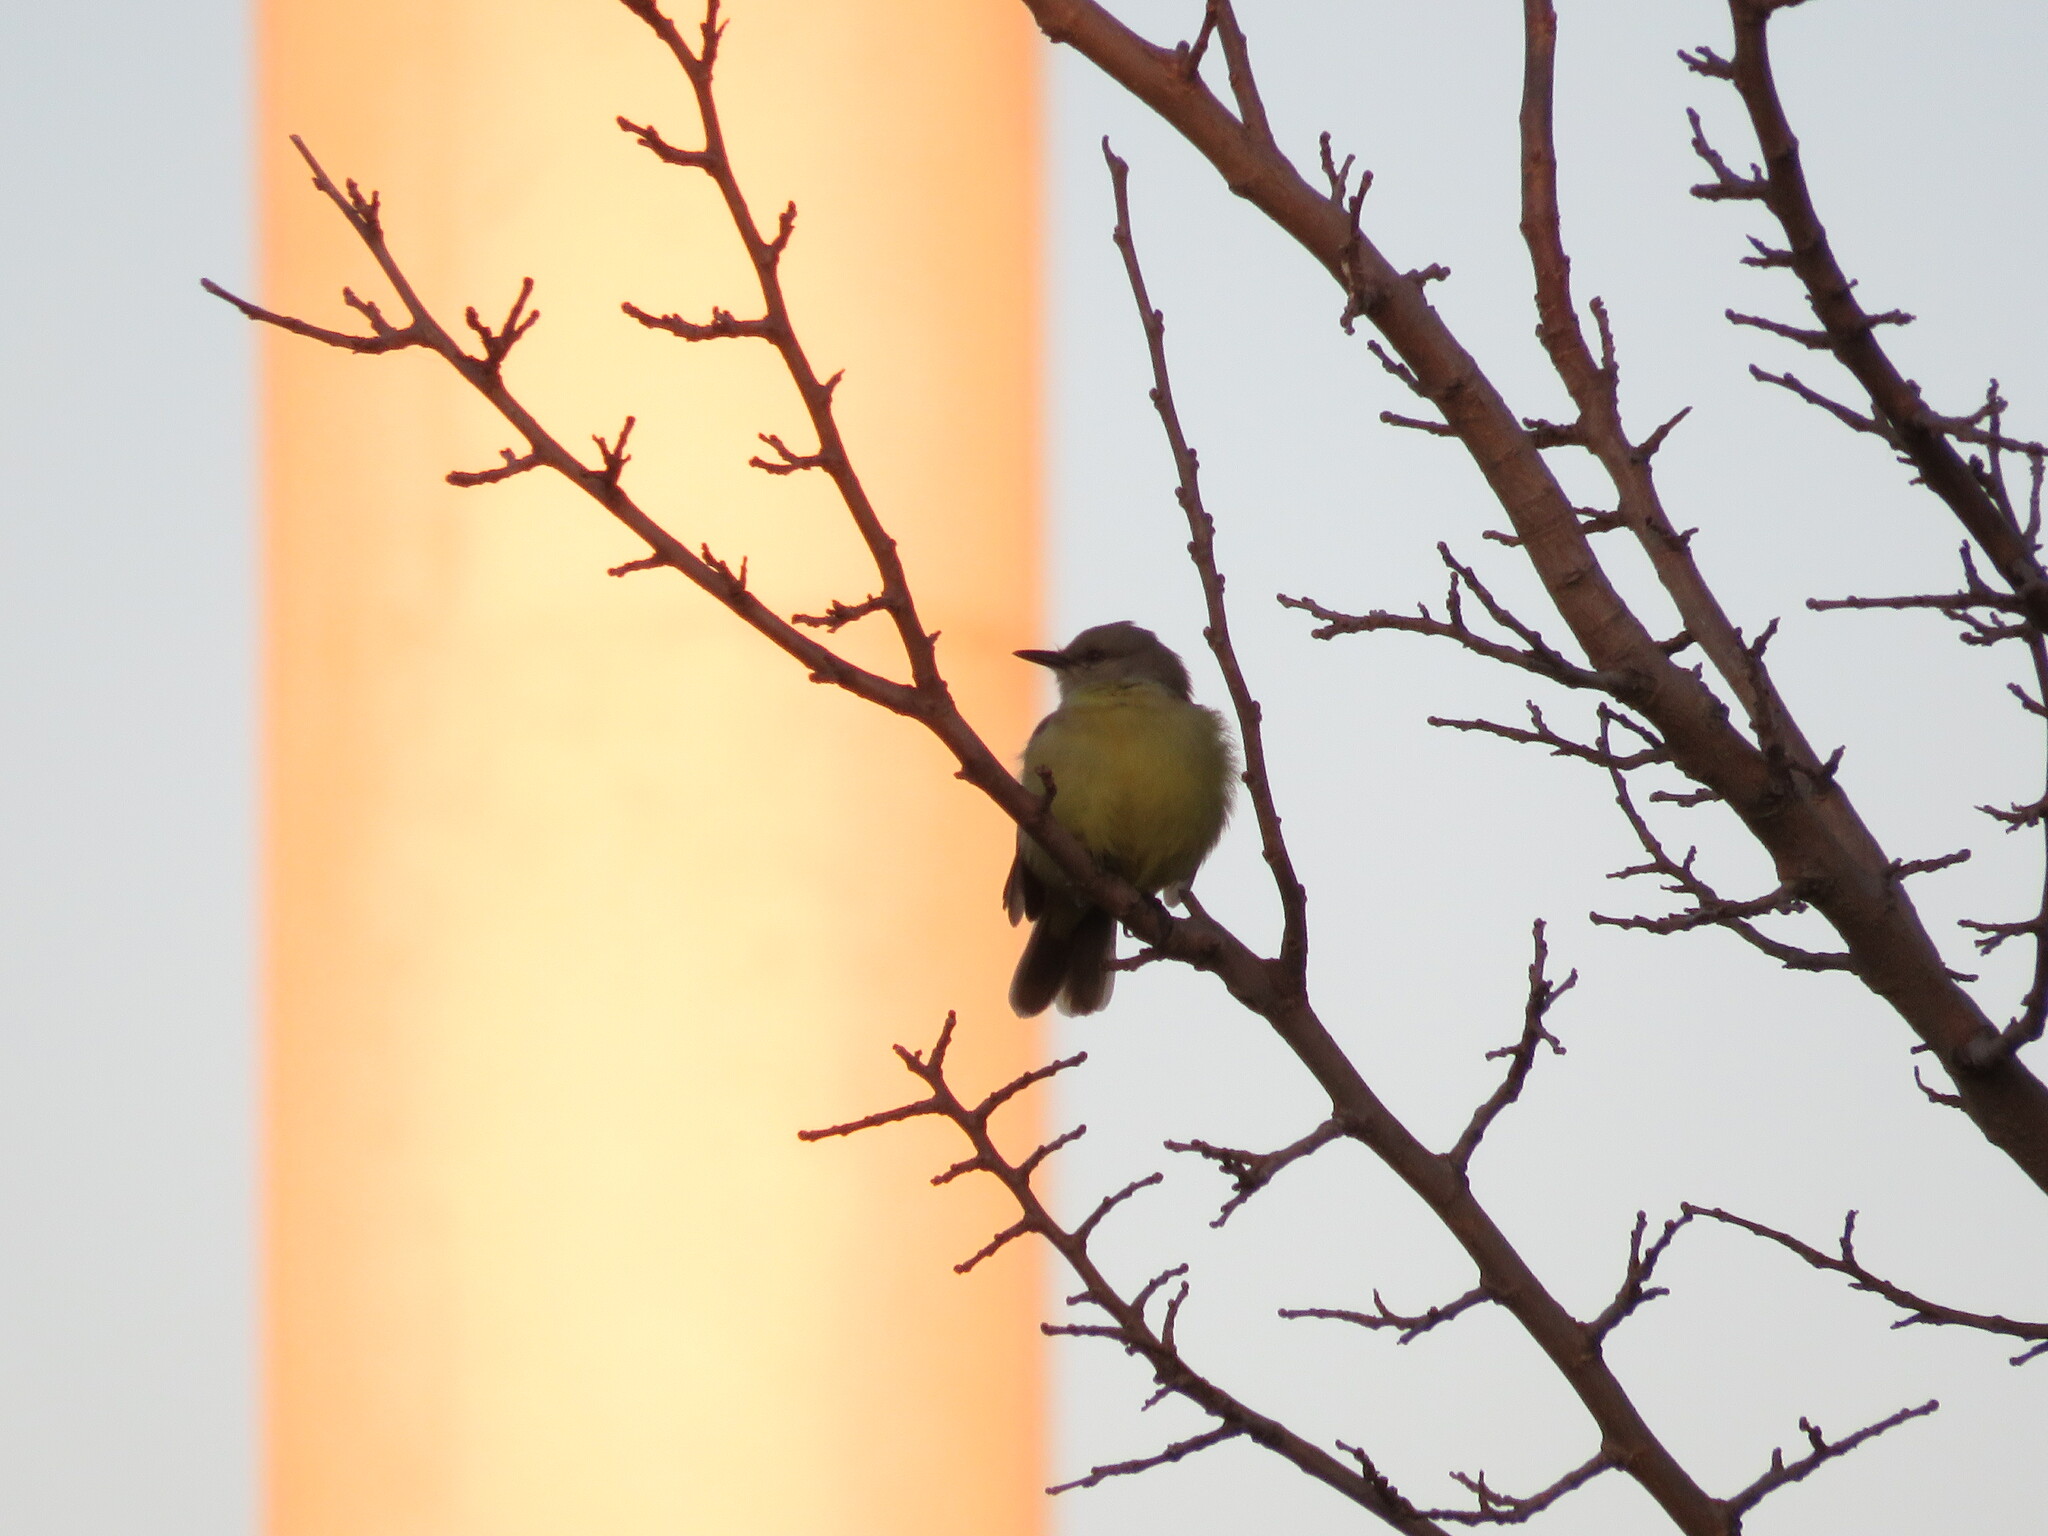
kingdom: Animalia
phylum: Chordata
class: Aves
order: Passeriformes
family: Tyrannidae
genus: Machetornis
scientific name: Machetornis rixosa
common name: Cattle tyrant
